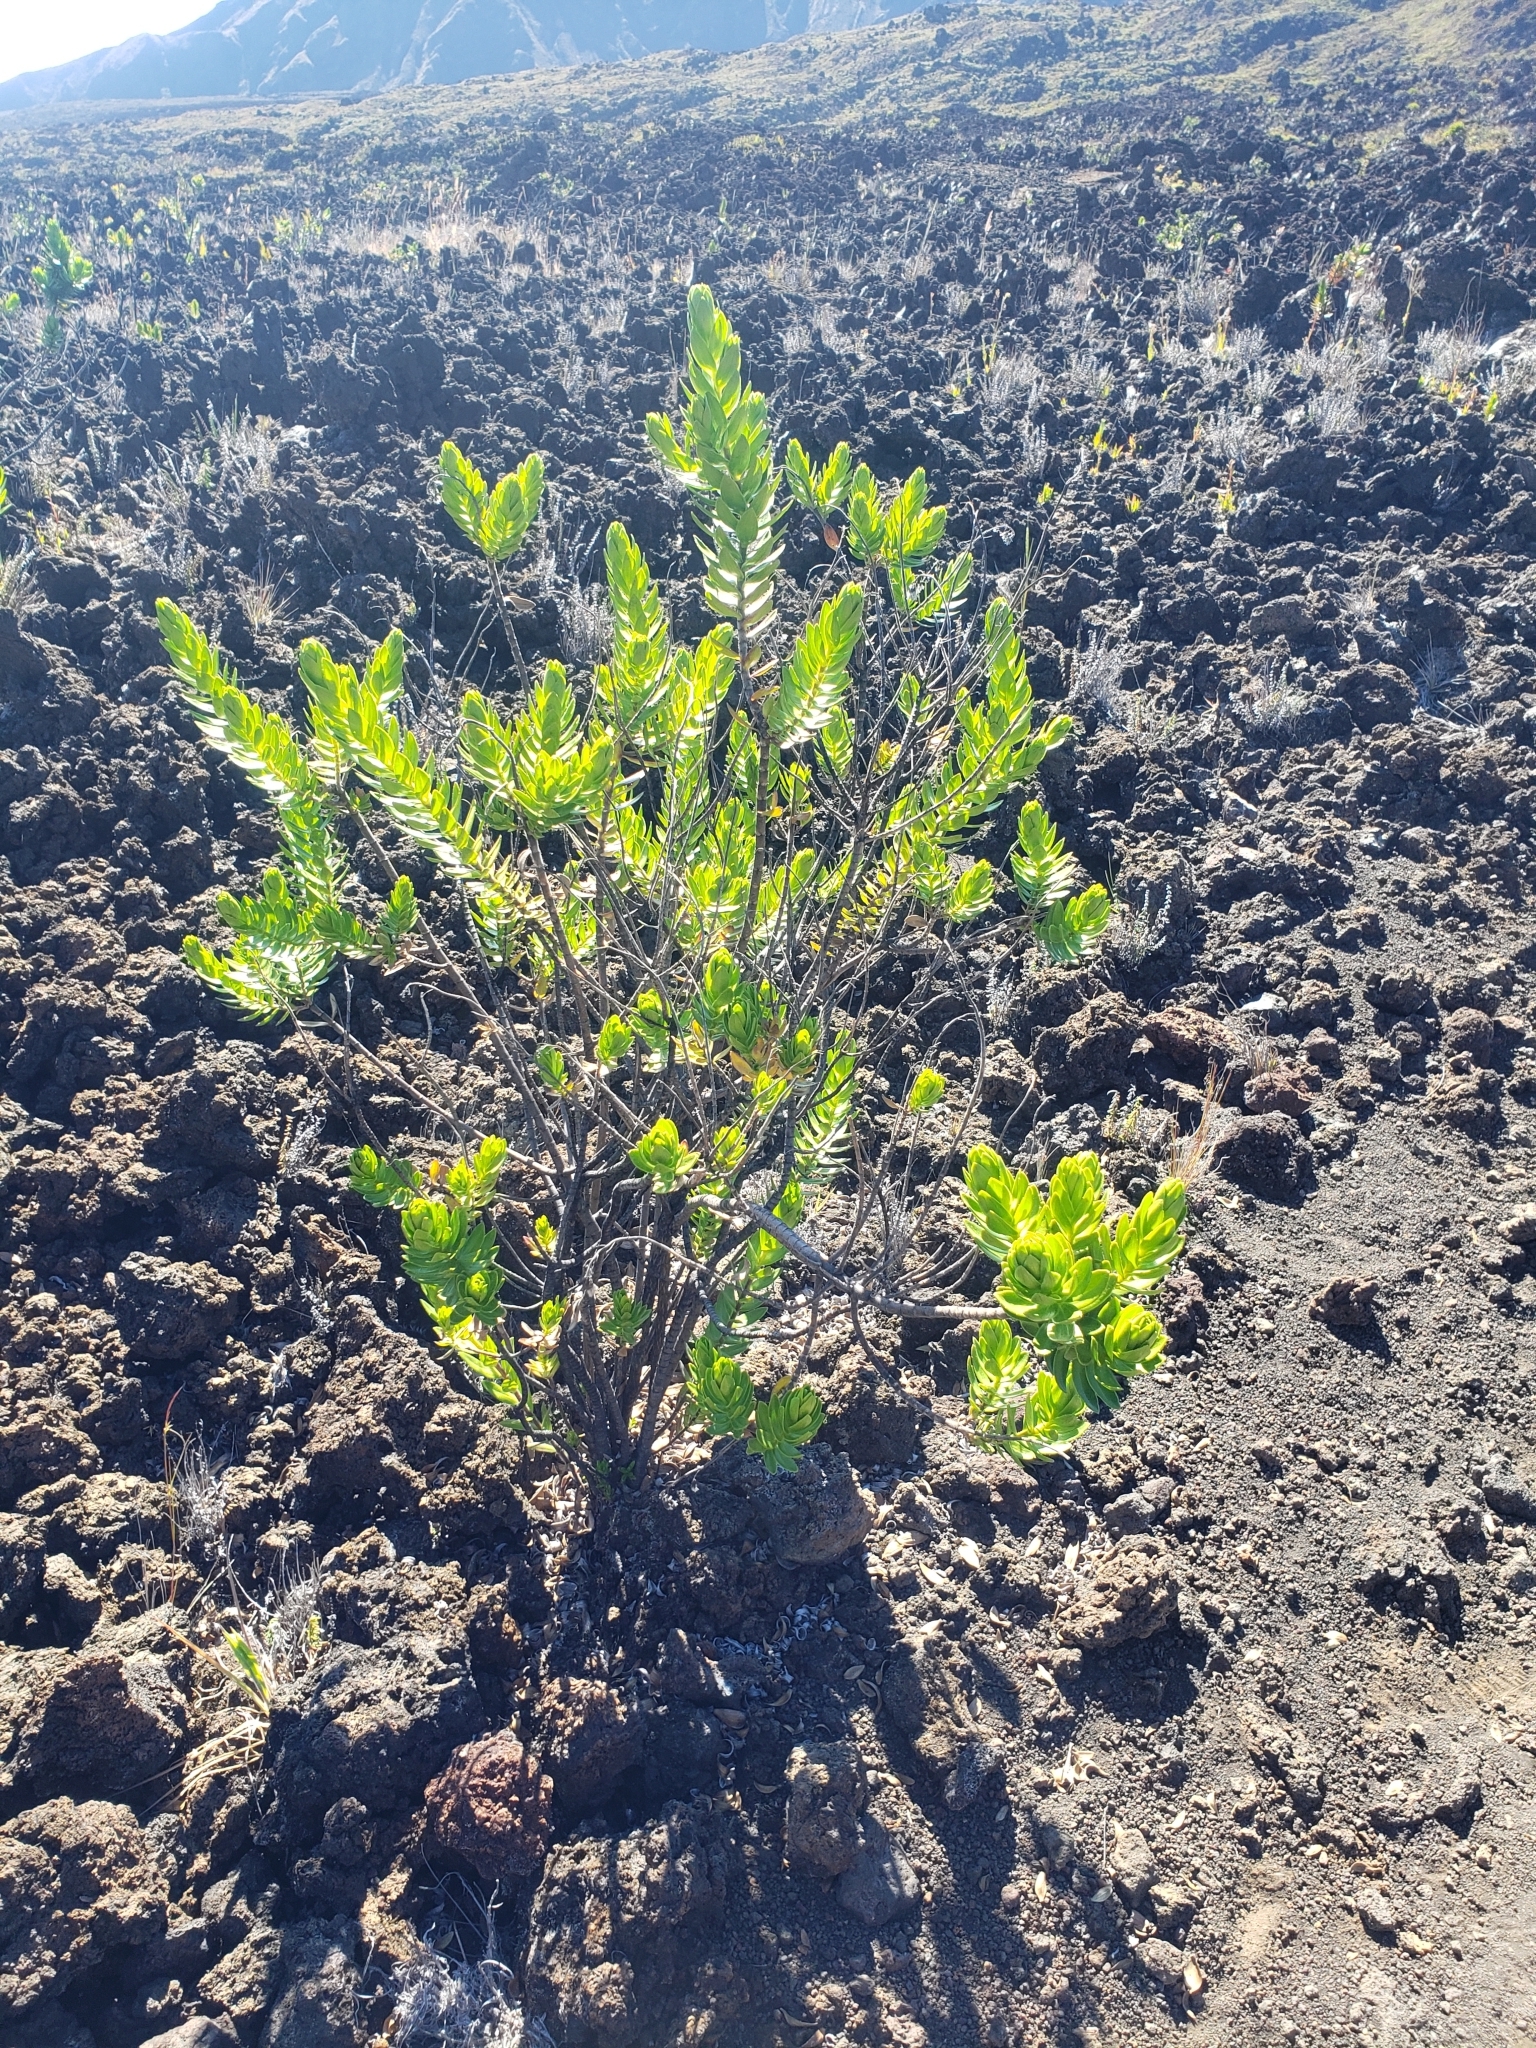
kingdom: Plantae
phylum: Tracheophyta
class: Magnoliopsida
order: Asterales
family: Asteraceae
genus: Dubautia
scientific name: Dubautia menziesii
